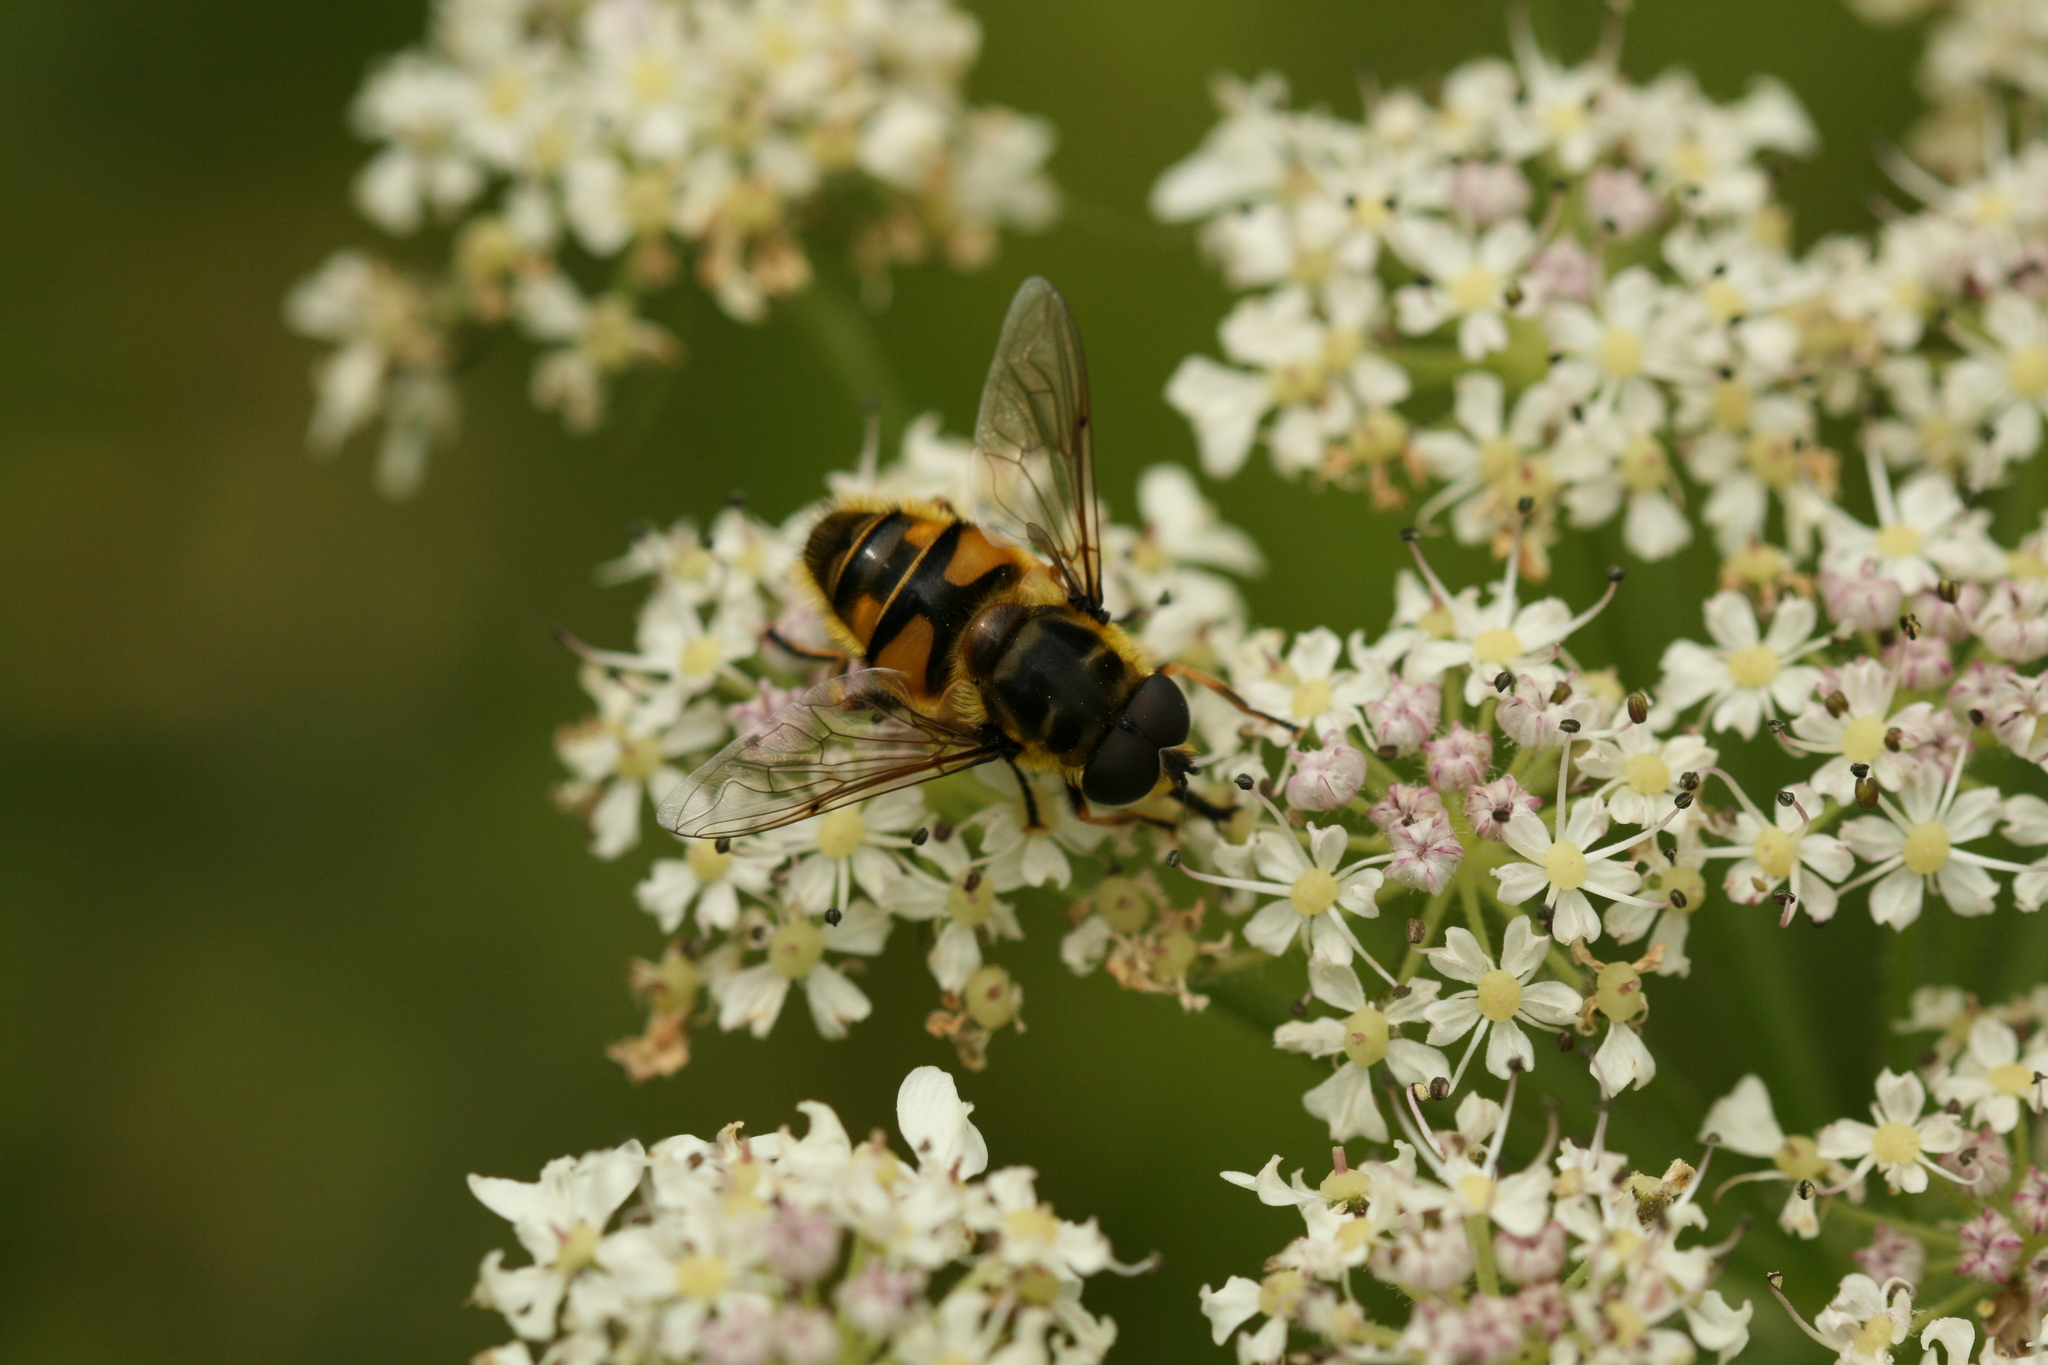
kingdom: Animalia
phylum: Arthropoda
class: Insecta
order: Diptera
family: Syrphidae
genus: Myathropa
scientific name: Myathropa florea
